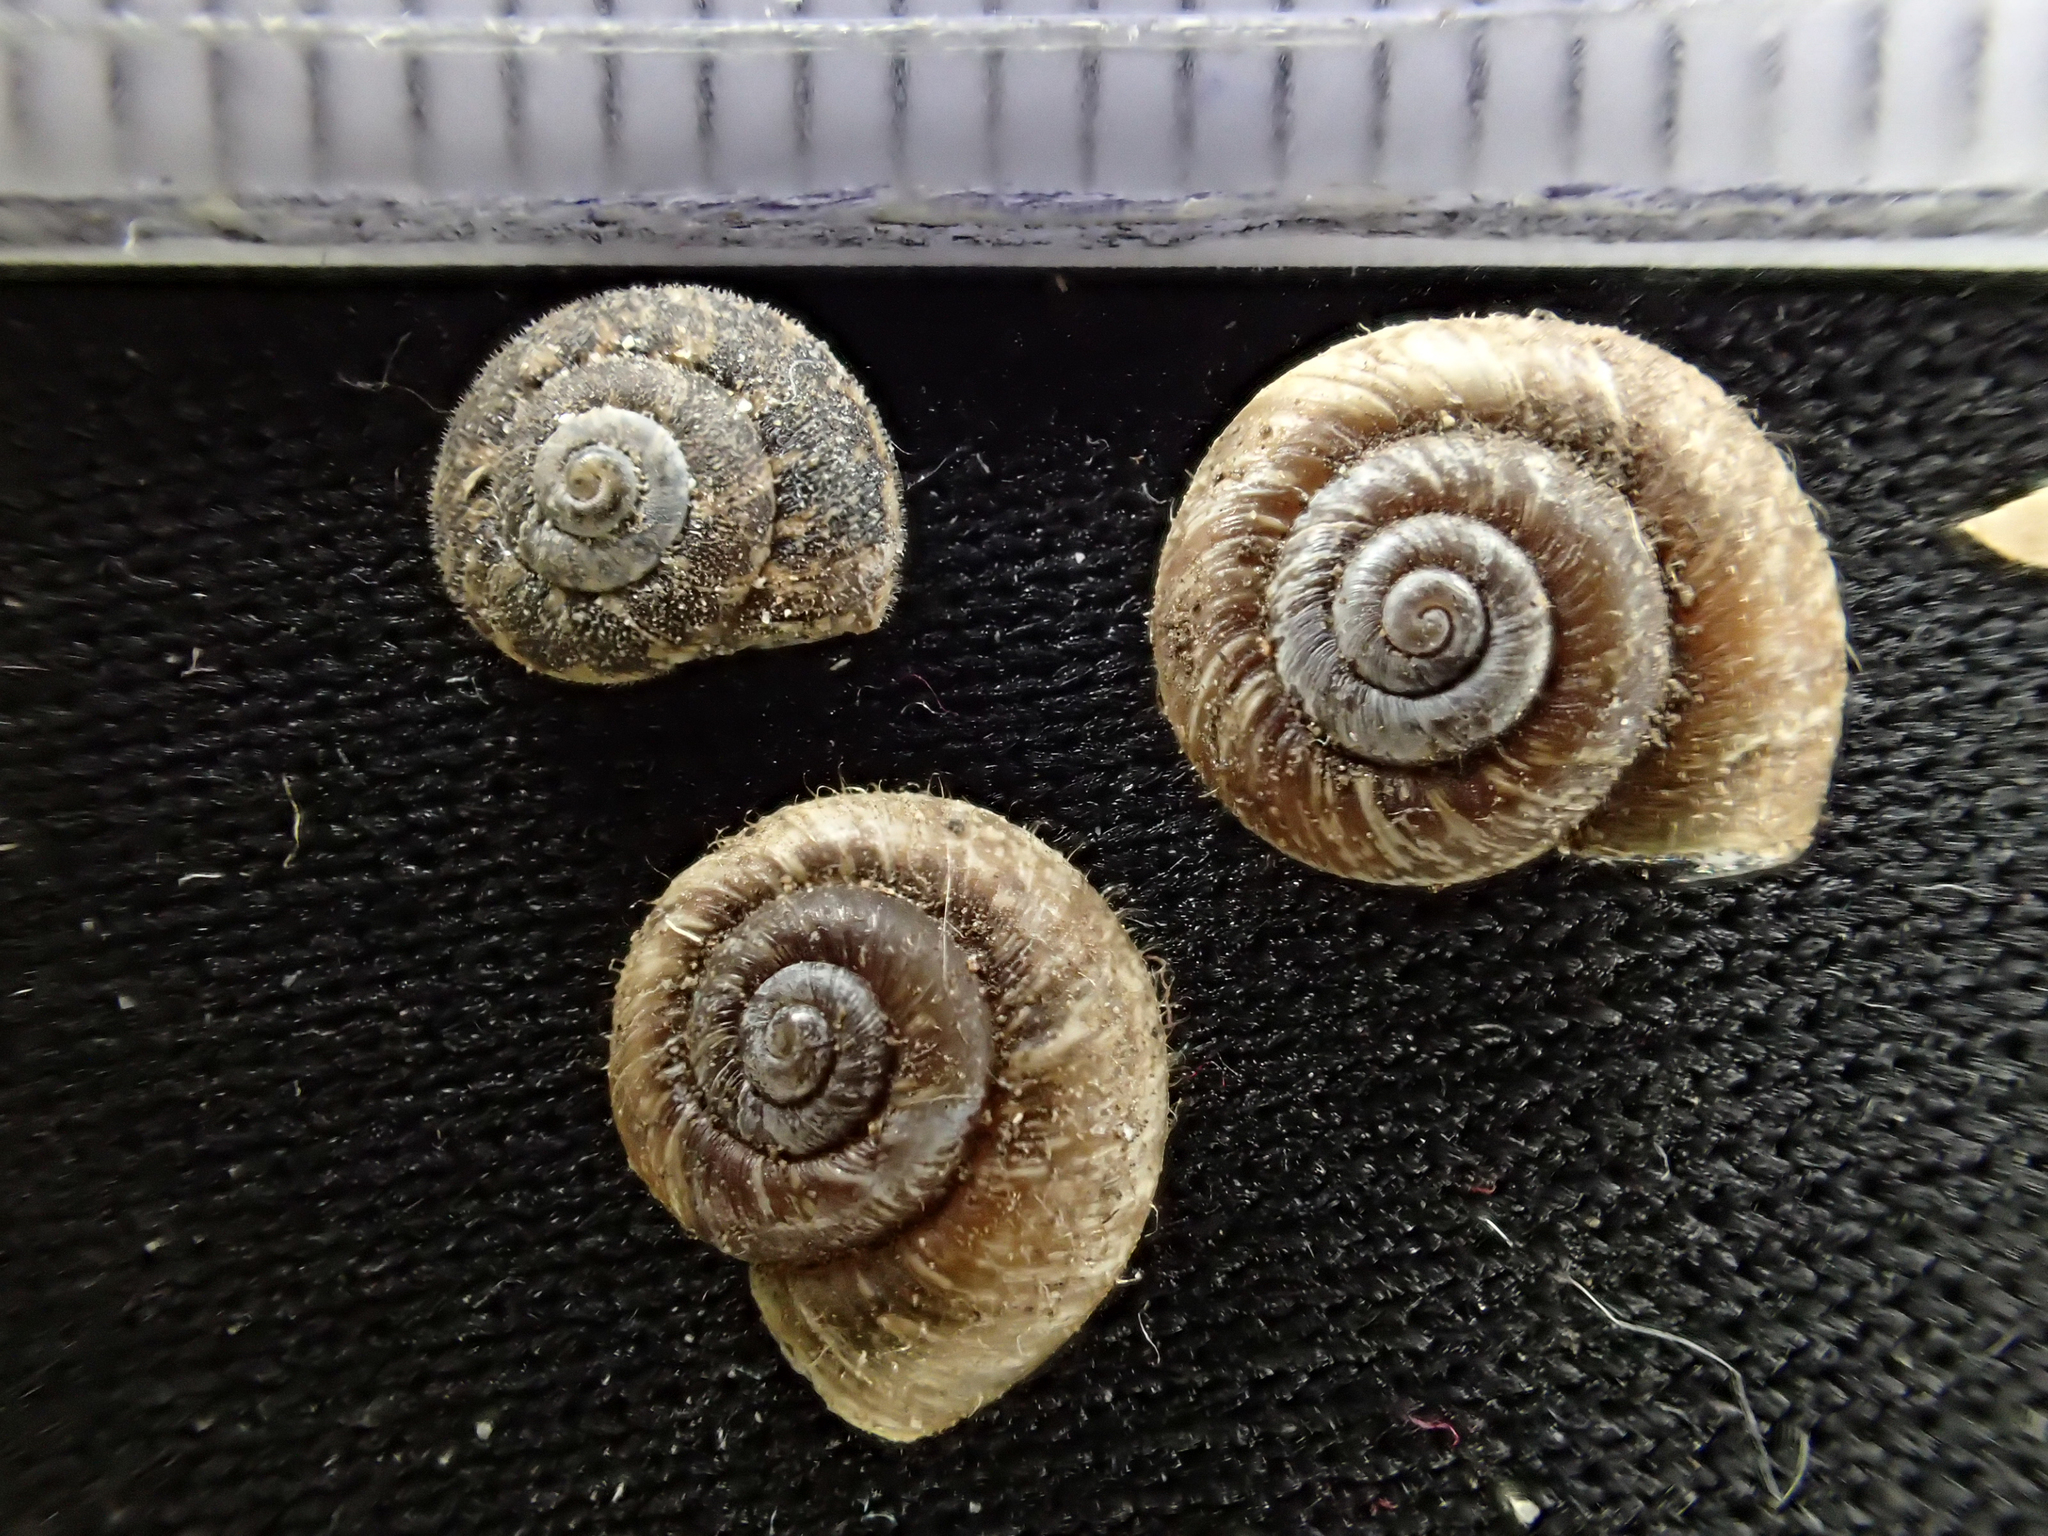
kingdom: Animalia
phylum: Mollusca
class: Gastropoda
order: Stylommatophora
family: Geomitridae
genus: Microxeromagna
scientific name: Microxeromagna lowei
